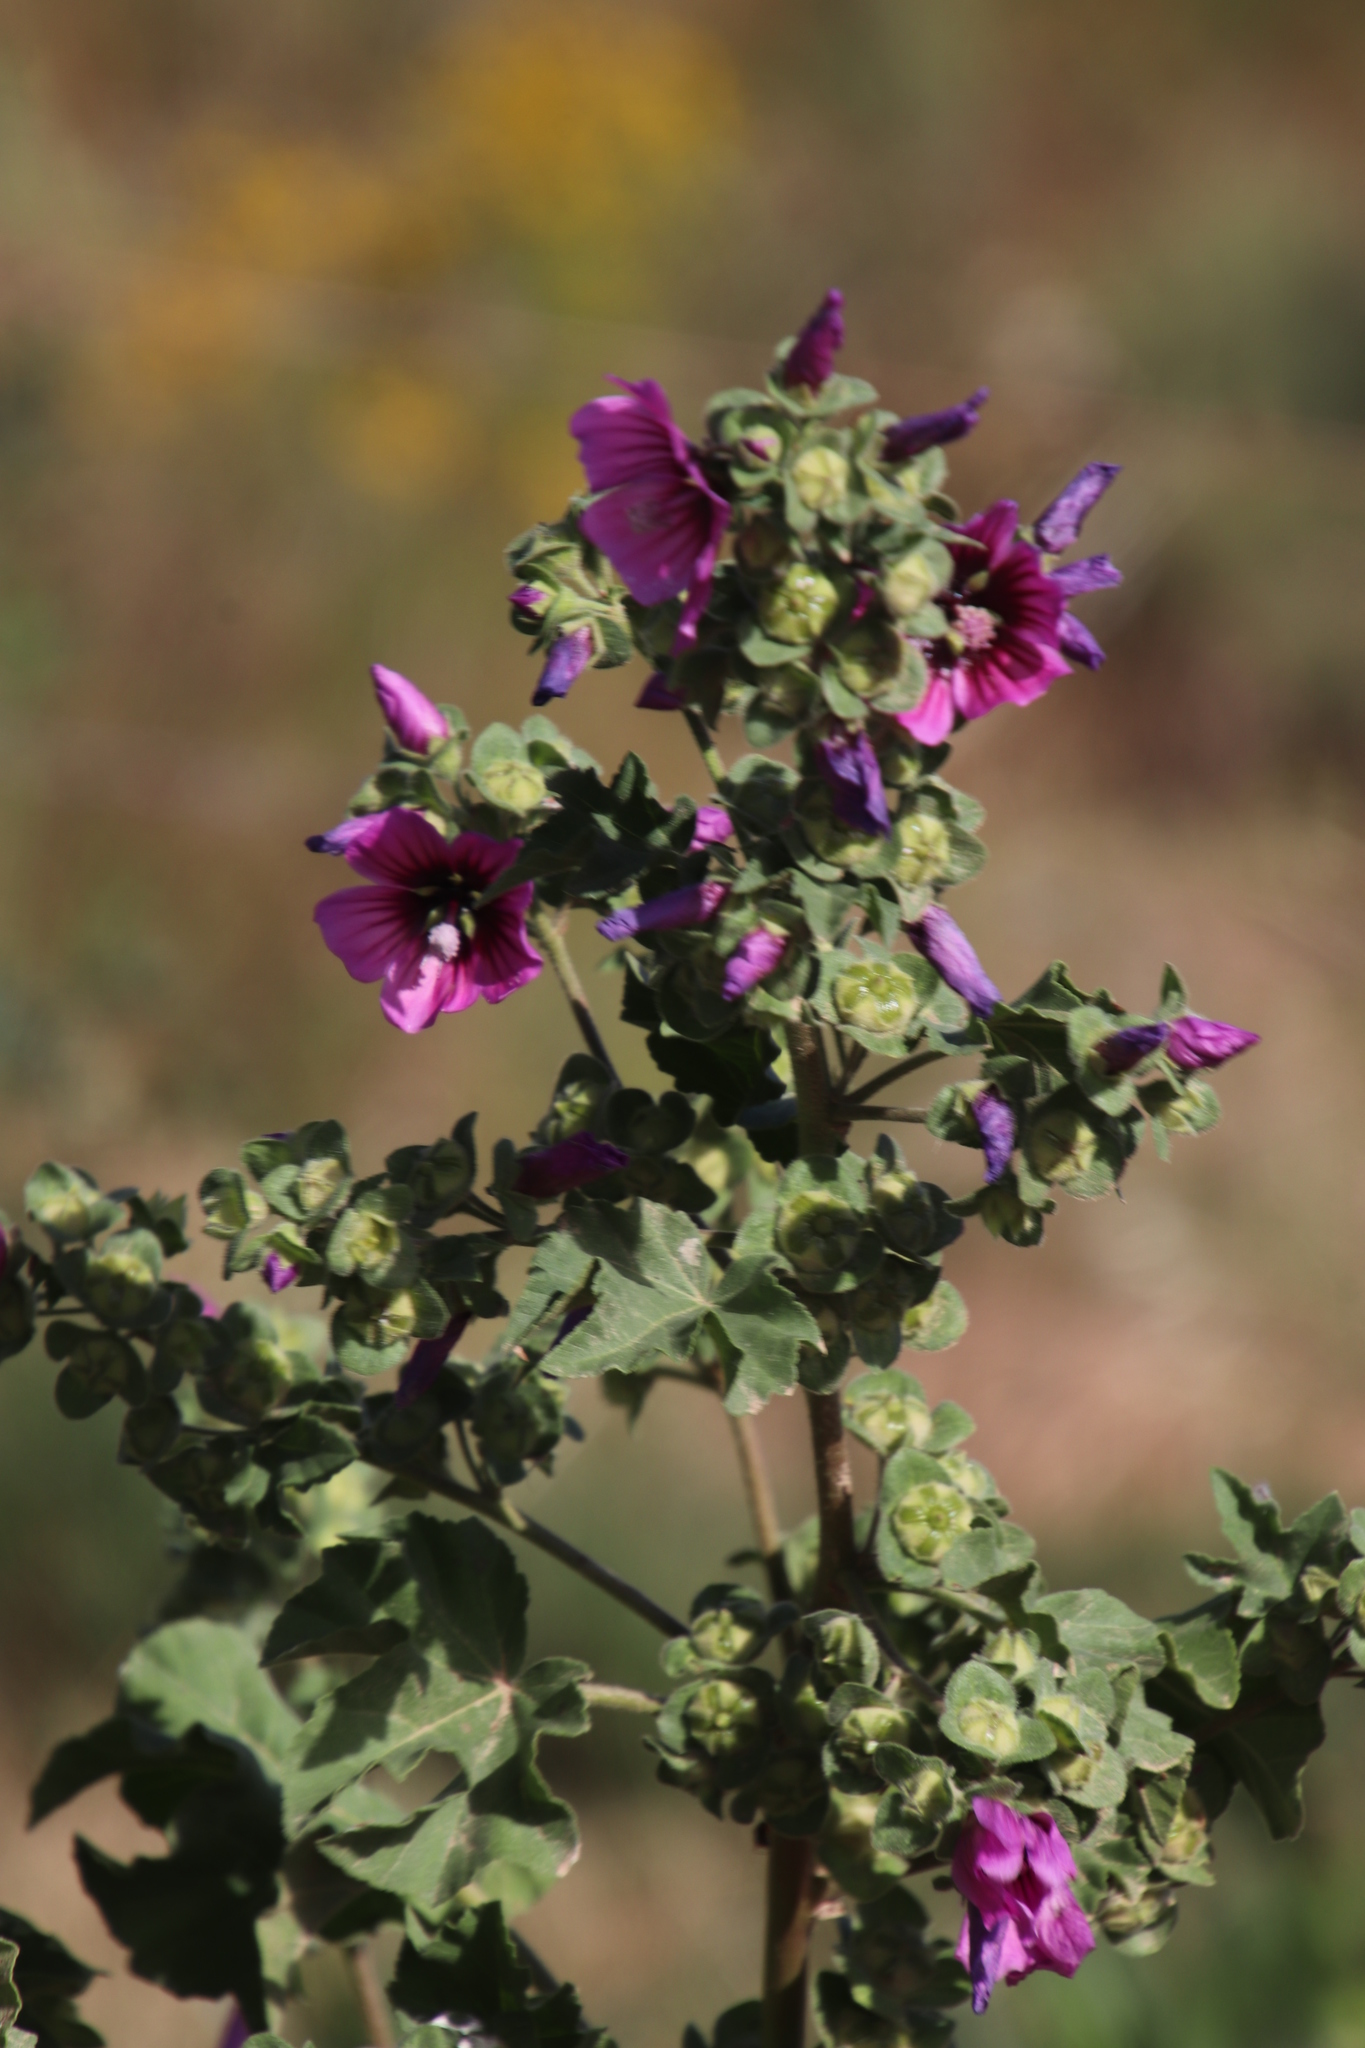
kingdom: Plantae
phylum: Tracheophyta
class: Magnoliopsida
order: Malvales
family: Malvaceae
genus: Malva
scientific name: Malva arborea
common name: Tree mallow
